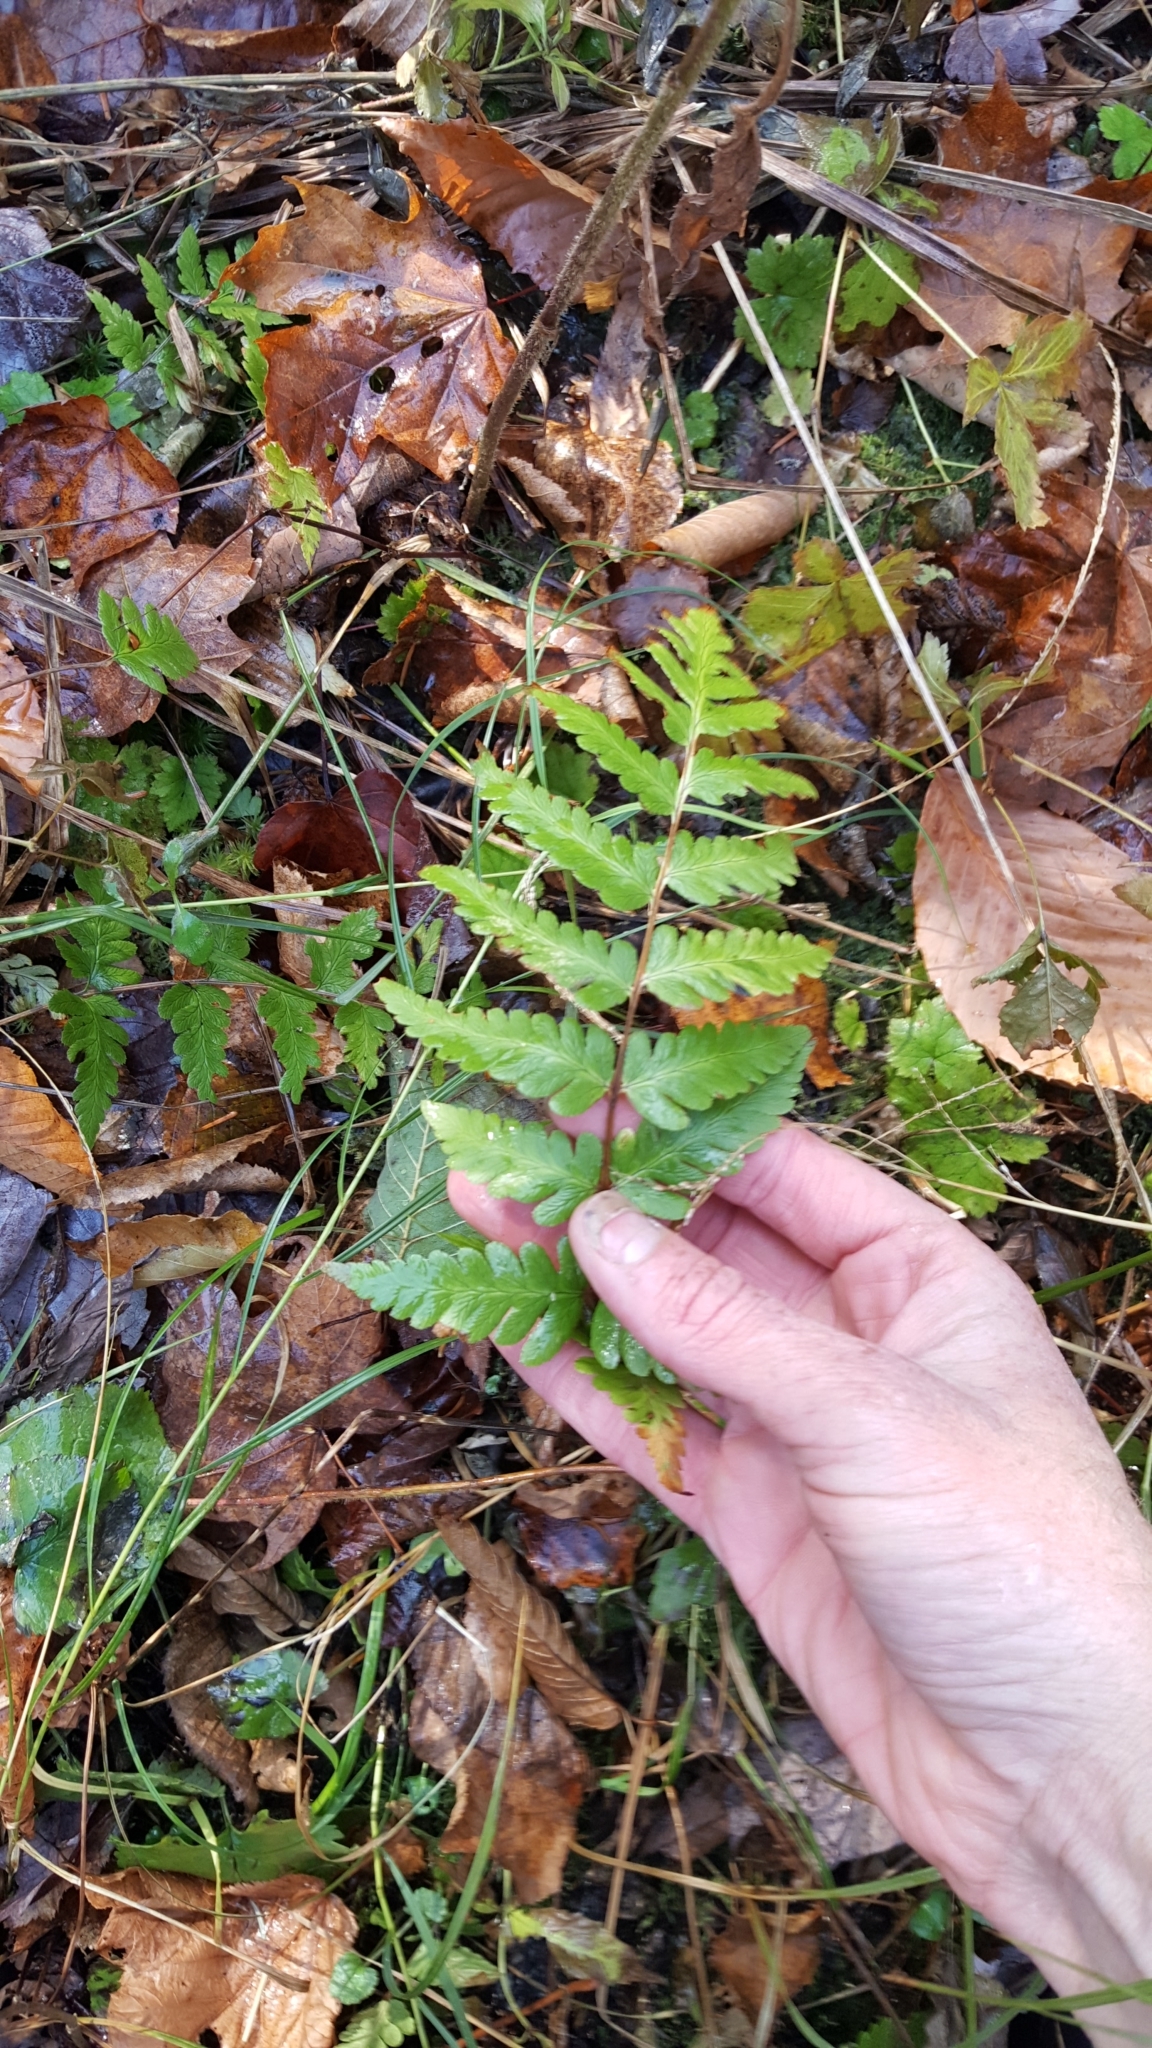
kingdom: Plantae
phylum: Tracheophyta
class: Polypodiopsida
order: Polypodiales
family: Dryopteridaceae
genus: Dryopteris
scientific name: Dryopteris cristata
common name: Crested wood fern
